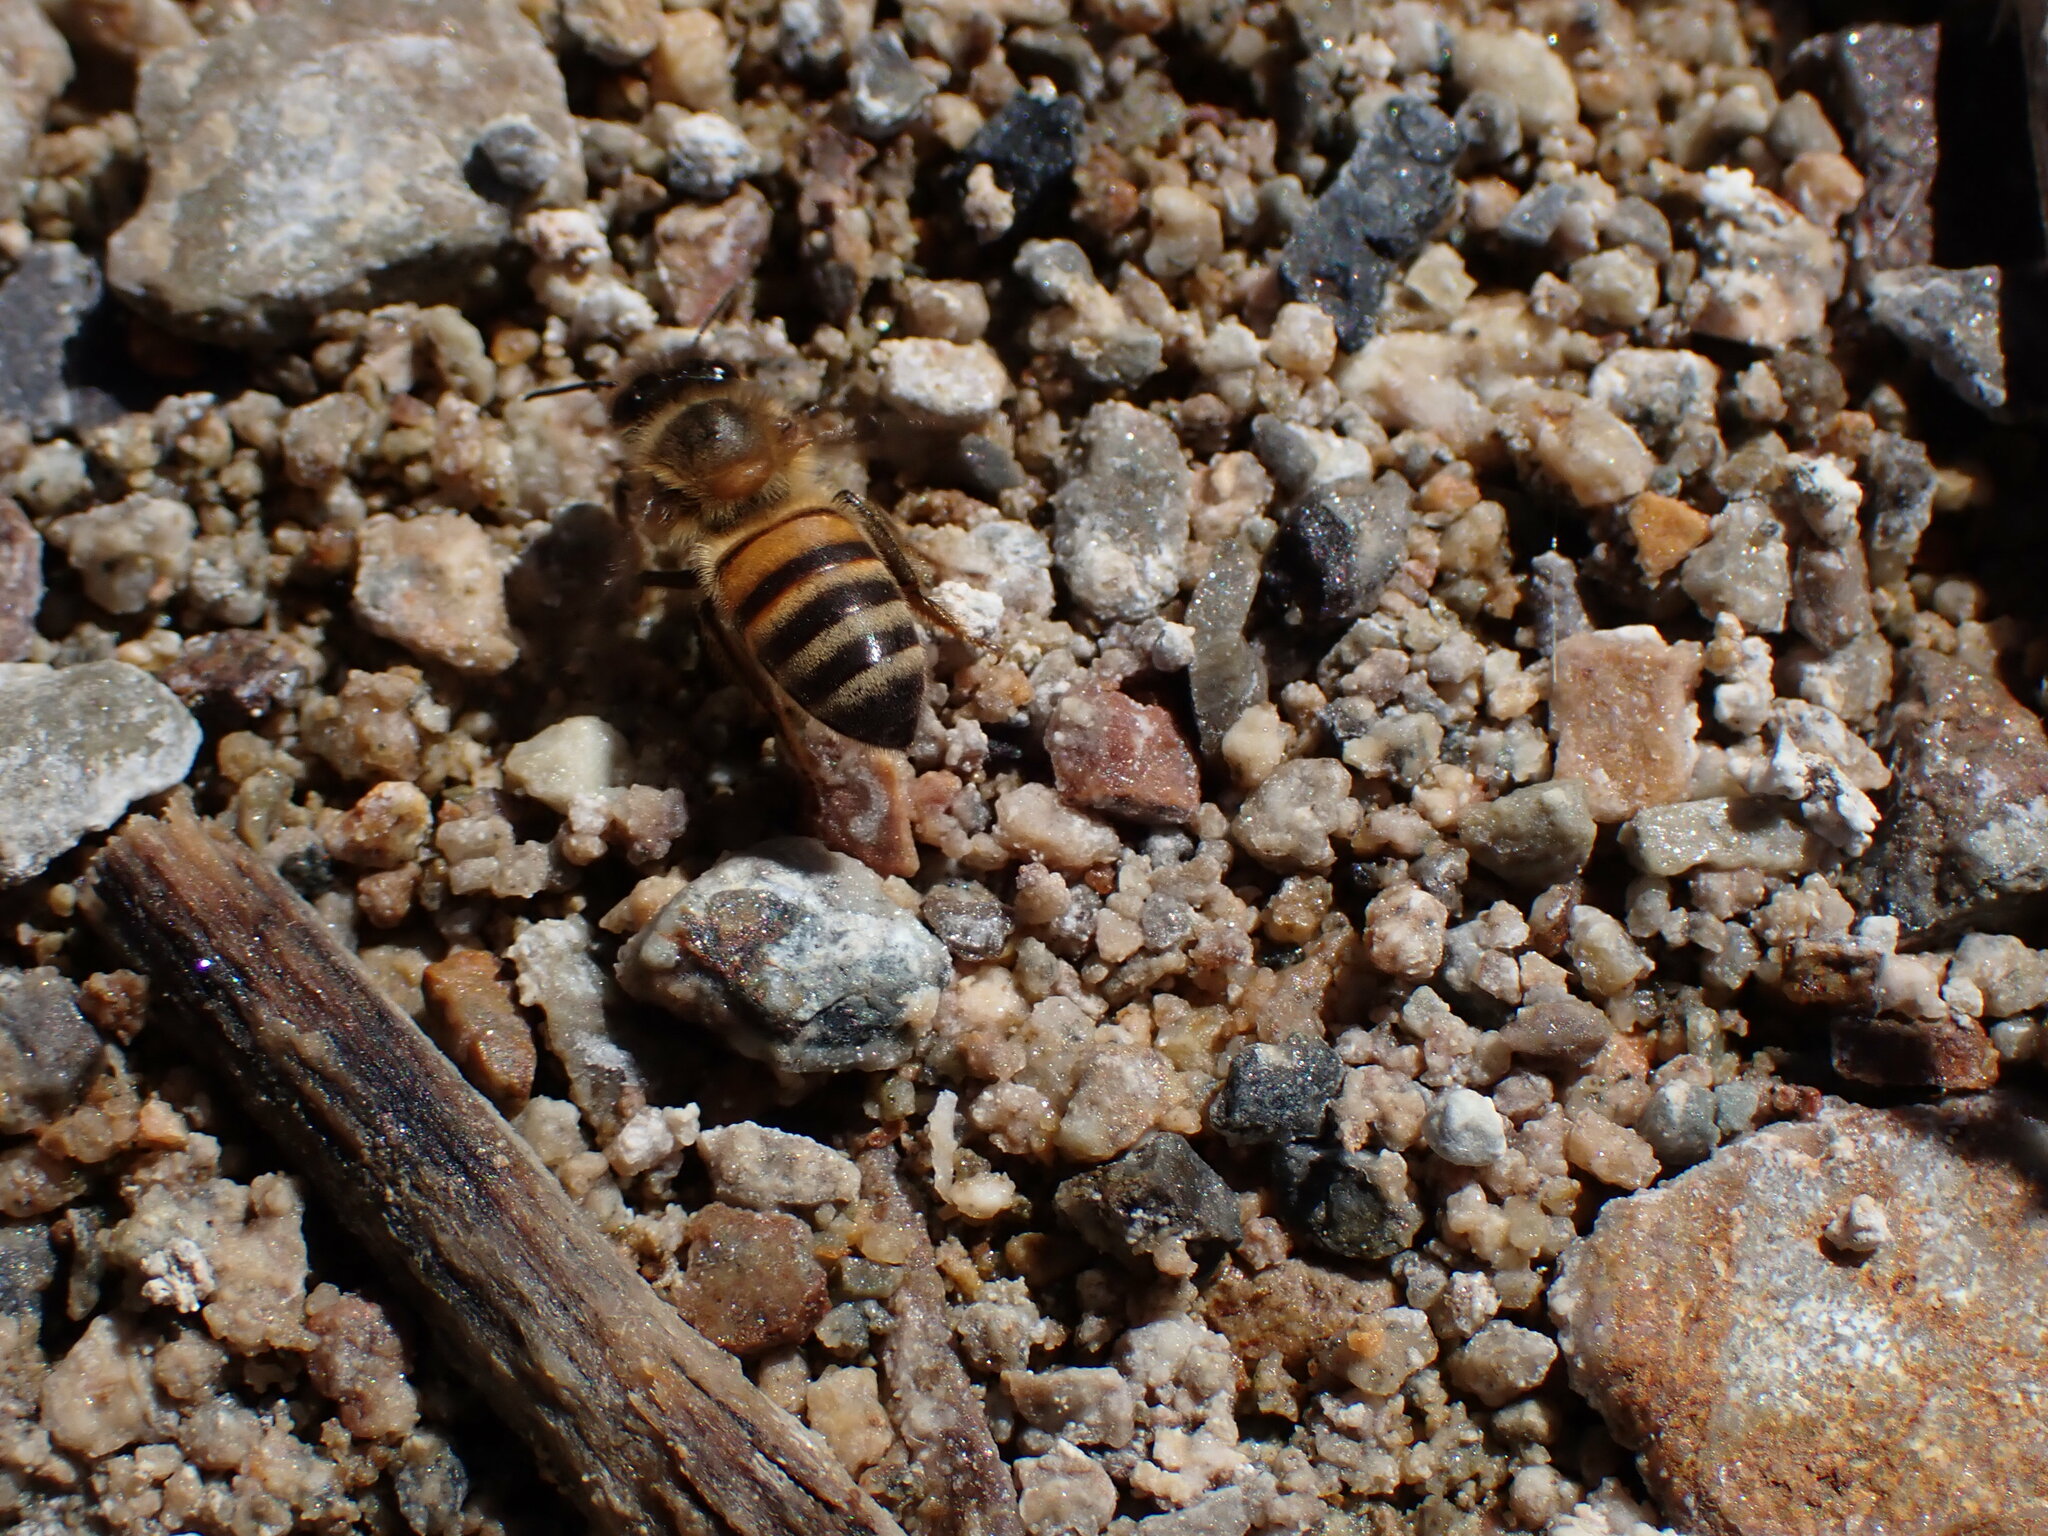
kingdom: Animalia
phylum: Arthropoda
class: Insecta
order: Hymenoptera
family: Apidae
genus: Apis
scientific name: Apis mellifera
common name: Honey bee
